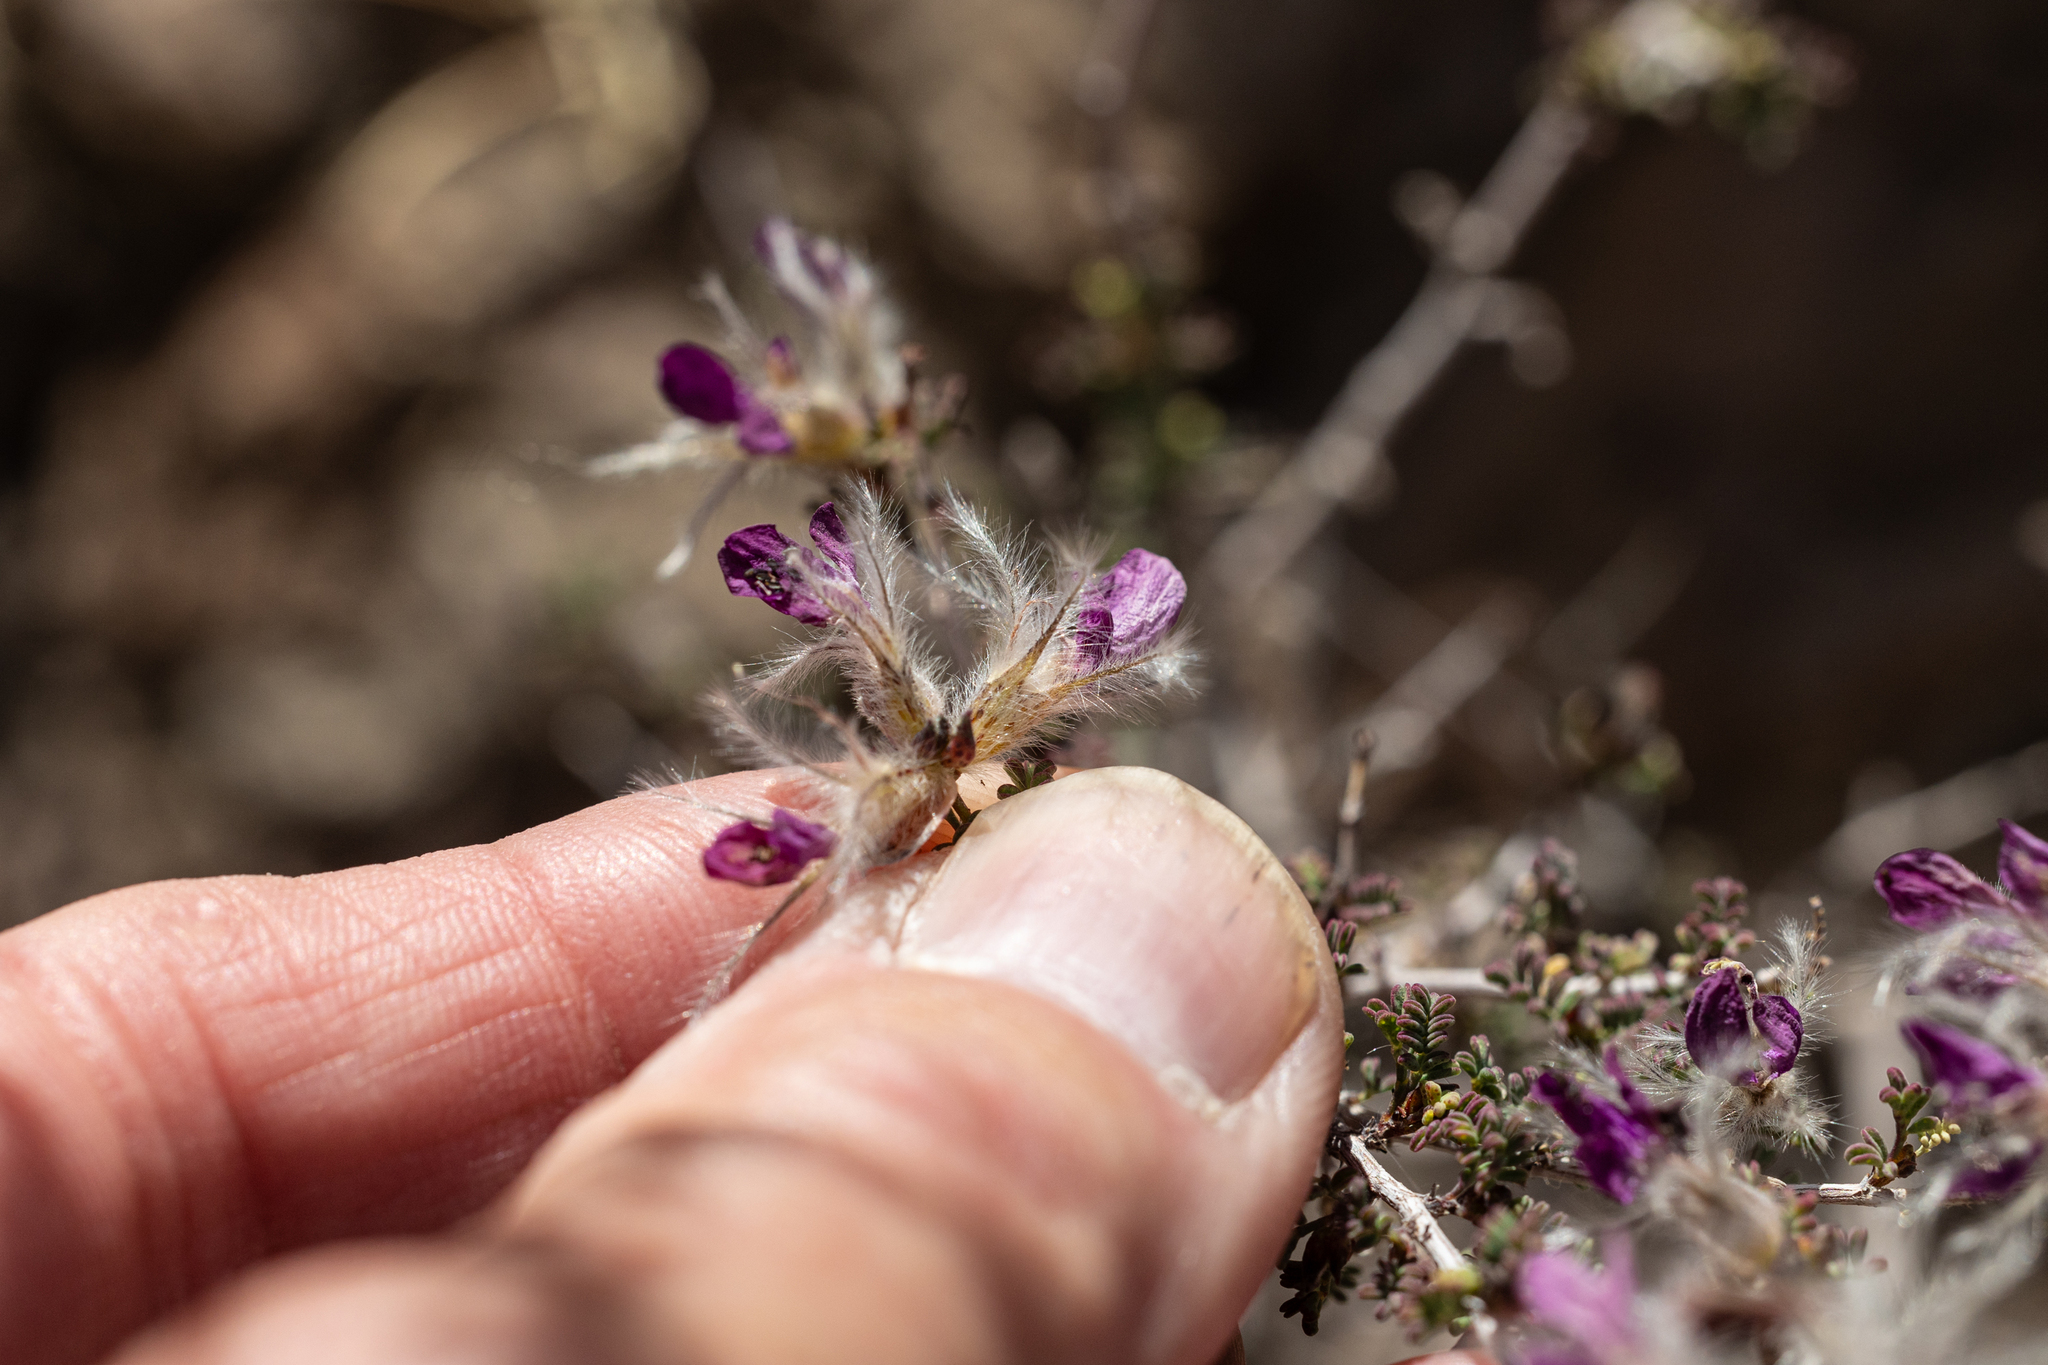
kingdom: Plantae
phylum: Tracheophyta
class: Magnoliopsida
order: Fabales
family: Fabaceae
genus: Dalea
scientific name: Dalea formosa
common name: Feather-plume dalea
